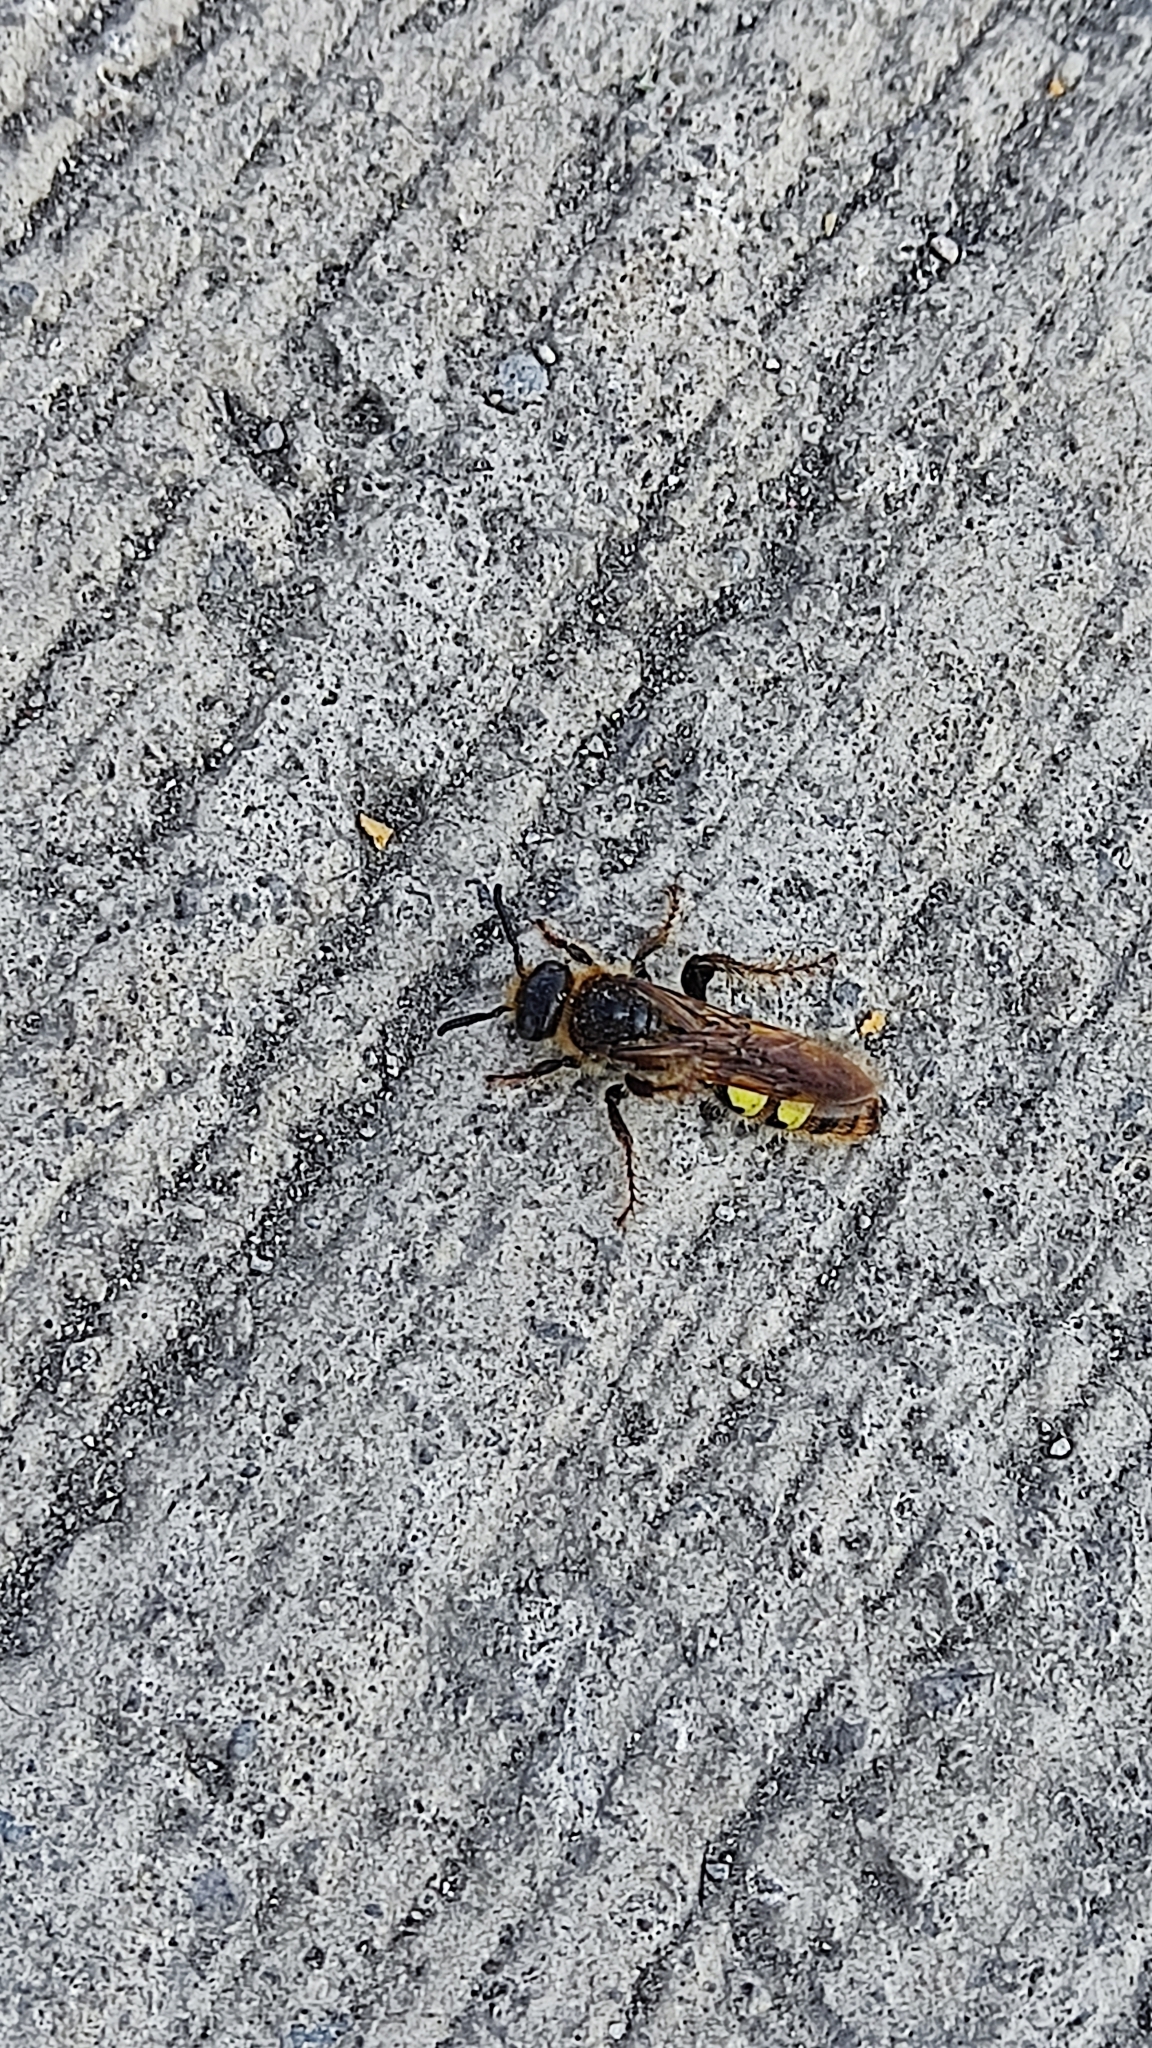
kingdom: Animalia
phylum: Arthropoda
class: Insecta
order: Hymenoptera
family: Scoliidae
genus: Xantocampsomeris
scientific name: Xantocampsomeris limosa
